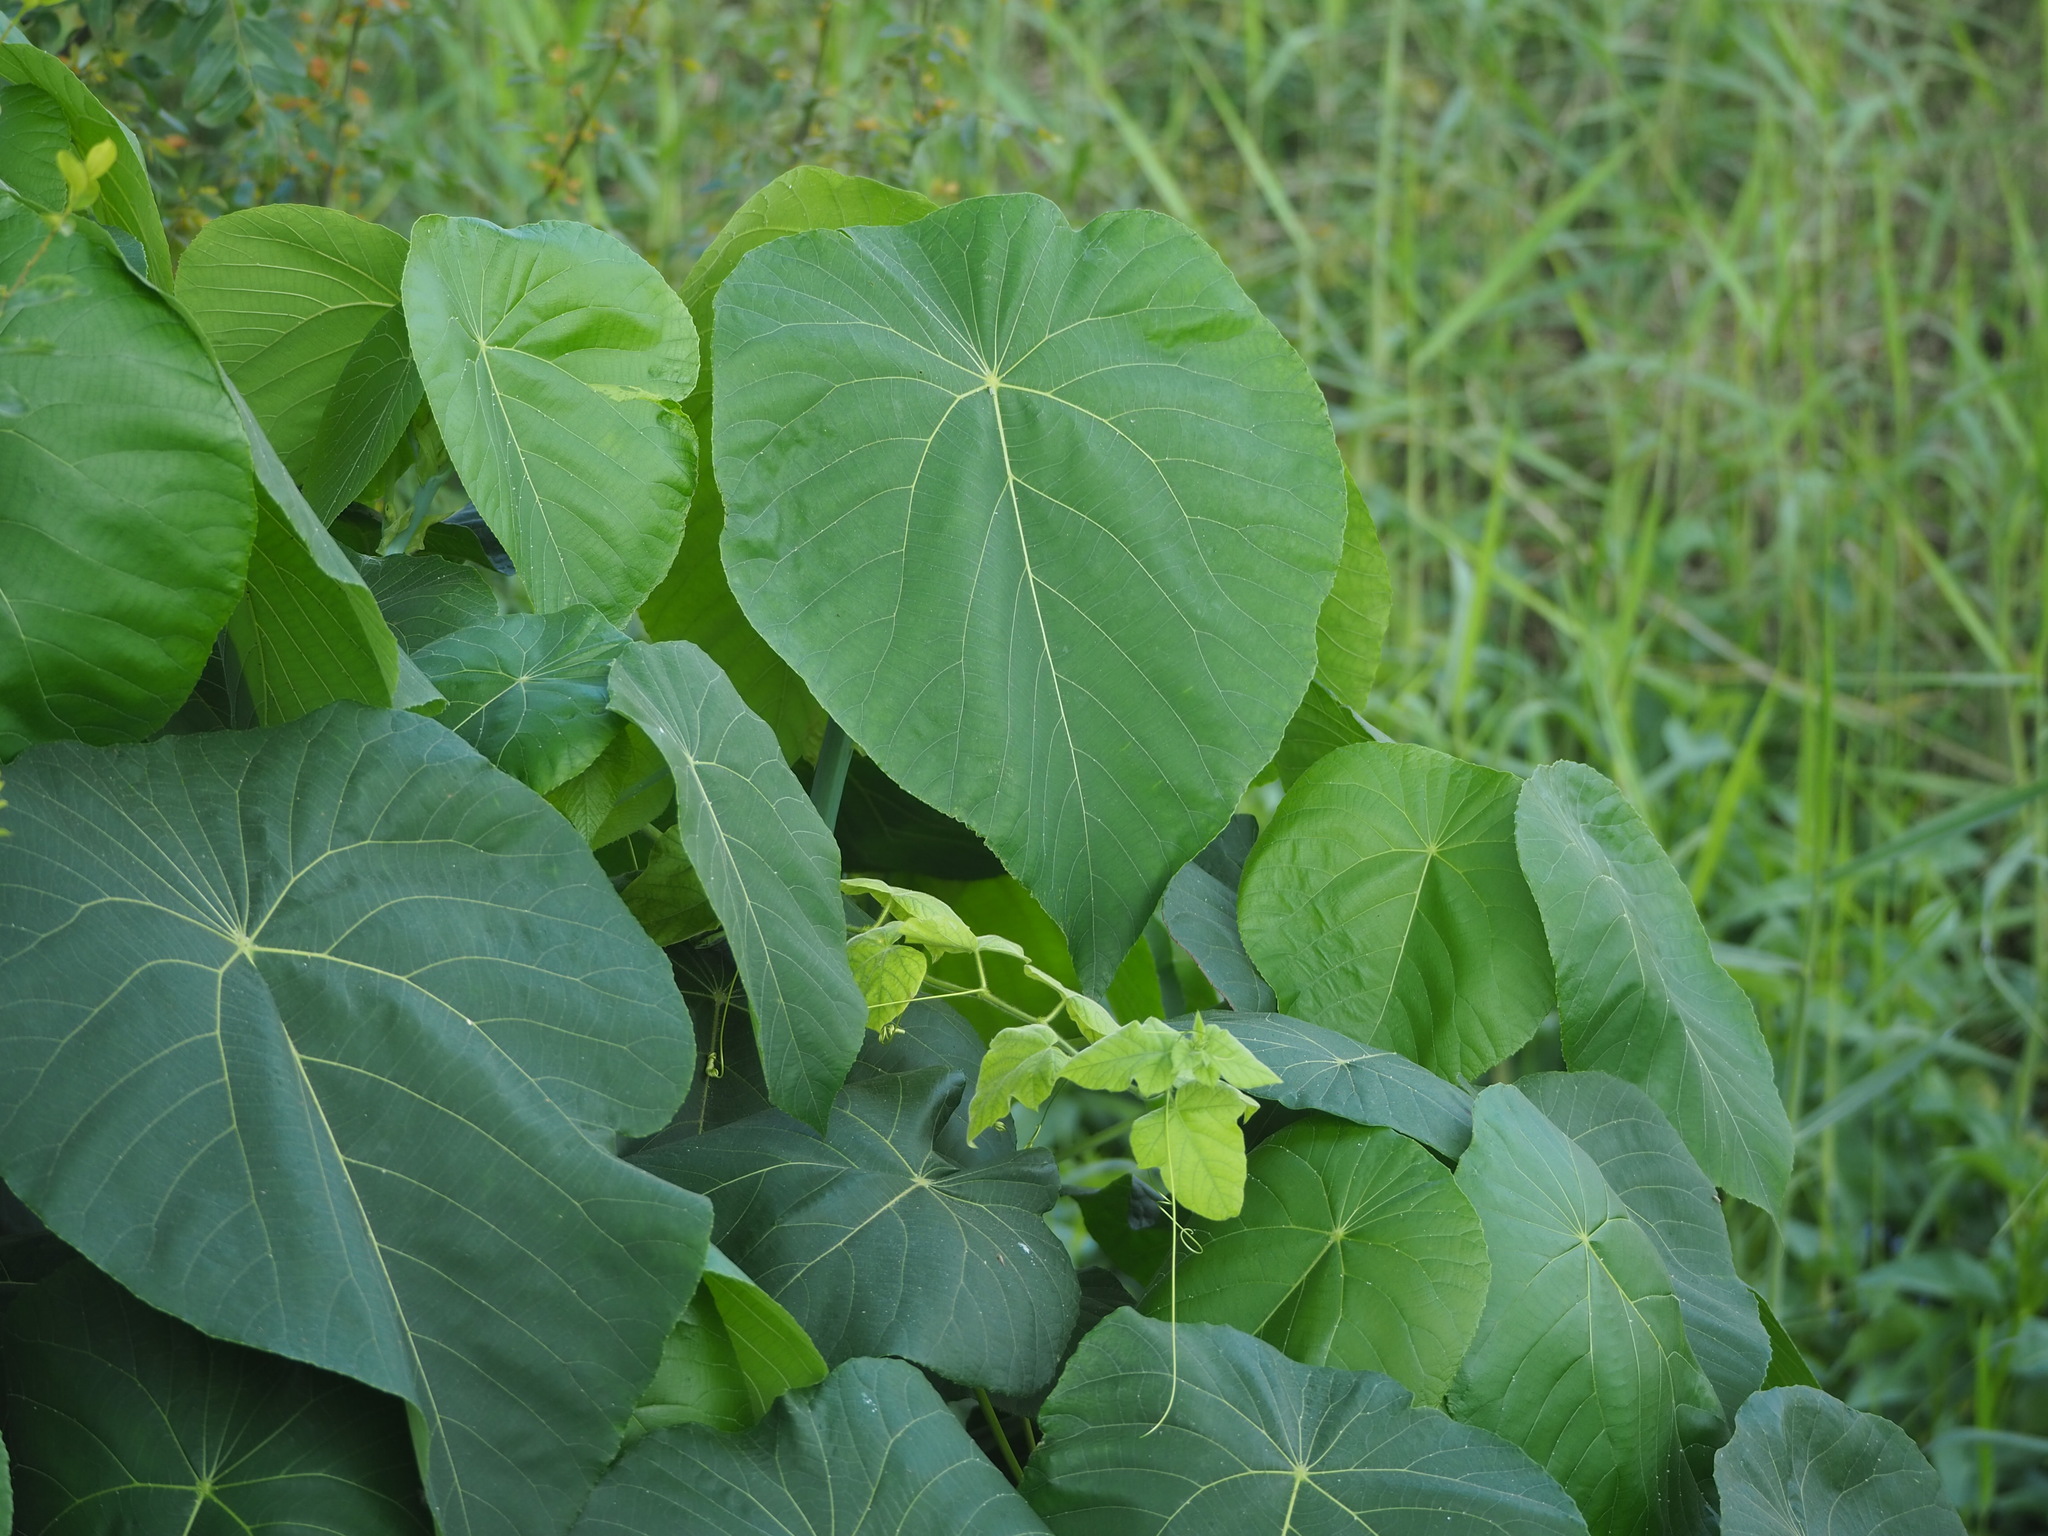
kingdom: Plantae
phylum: Tracheophyta
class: Magnoliopsida
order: Malpighiales
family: Euphorbiaceae
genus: Macaranga
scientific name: Macaranga tanarius
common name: Parasol leaf tree
